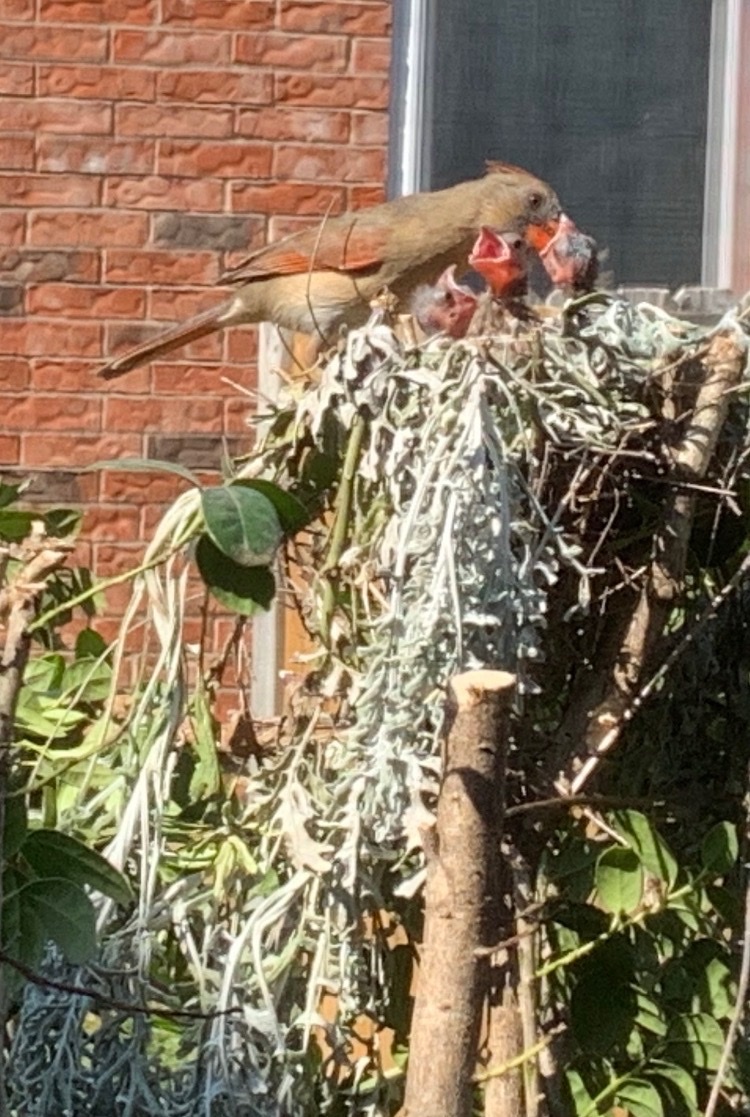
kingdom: Animalia
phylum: Chordata
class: Aves
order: Passeriformes
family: Cardinalidae
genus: Cardinalis
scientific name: Cardinalis cardinalis
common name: Northern cardinal
